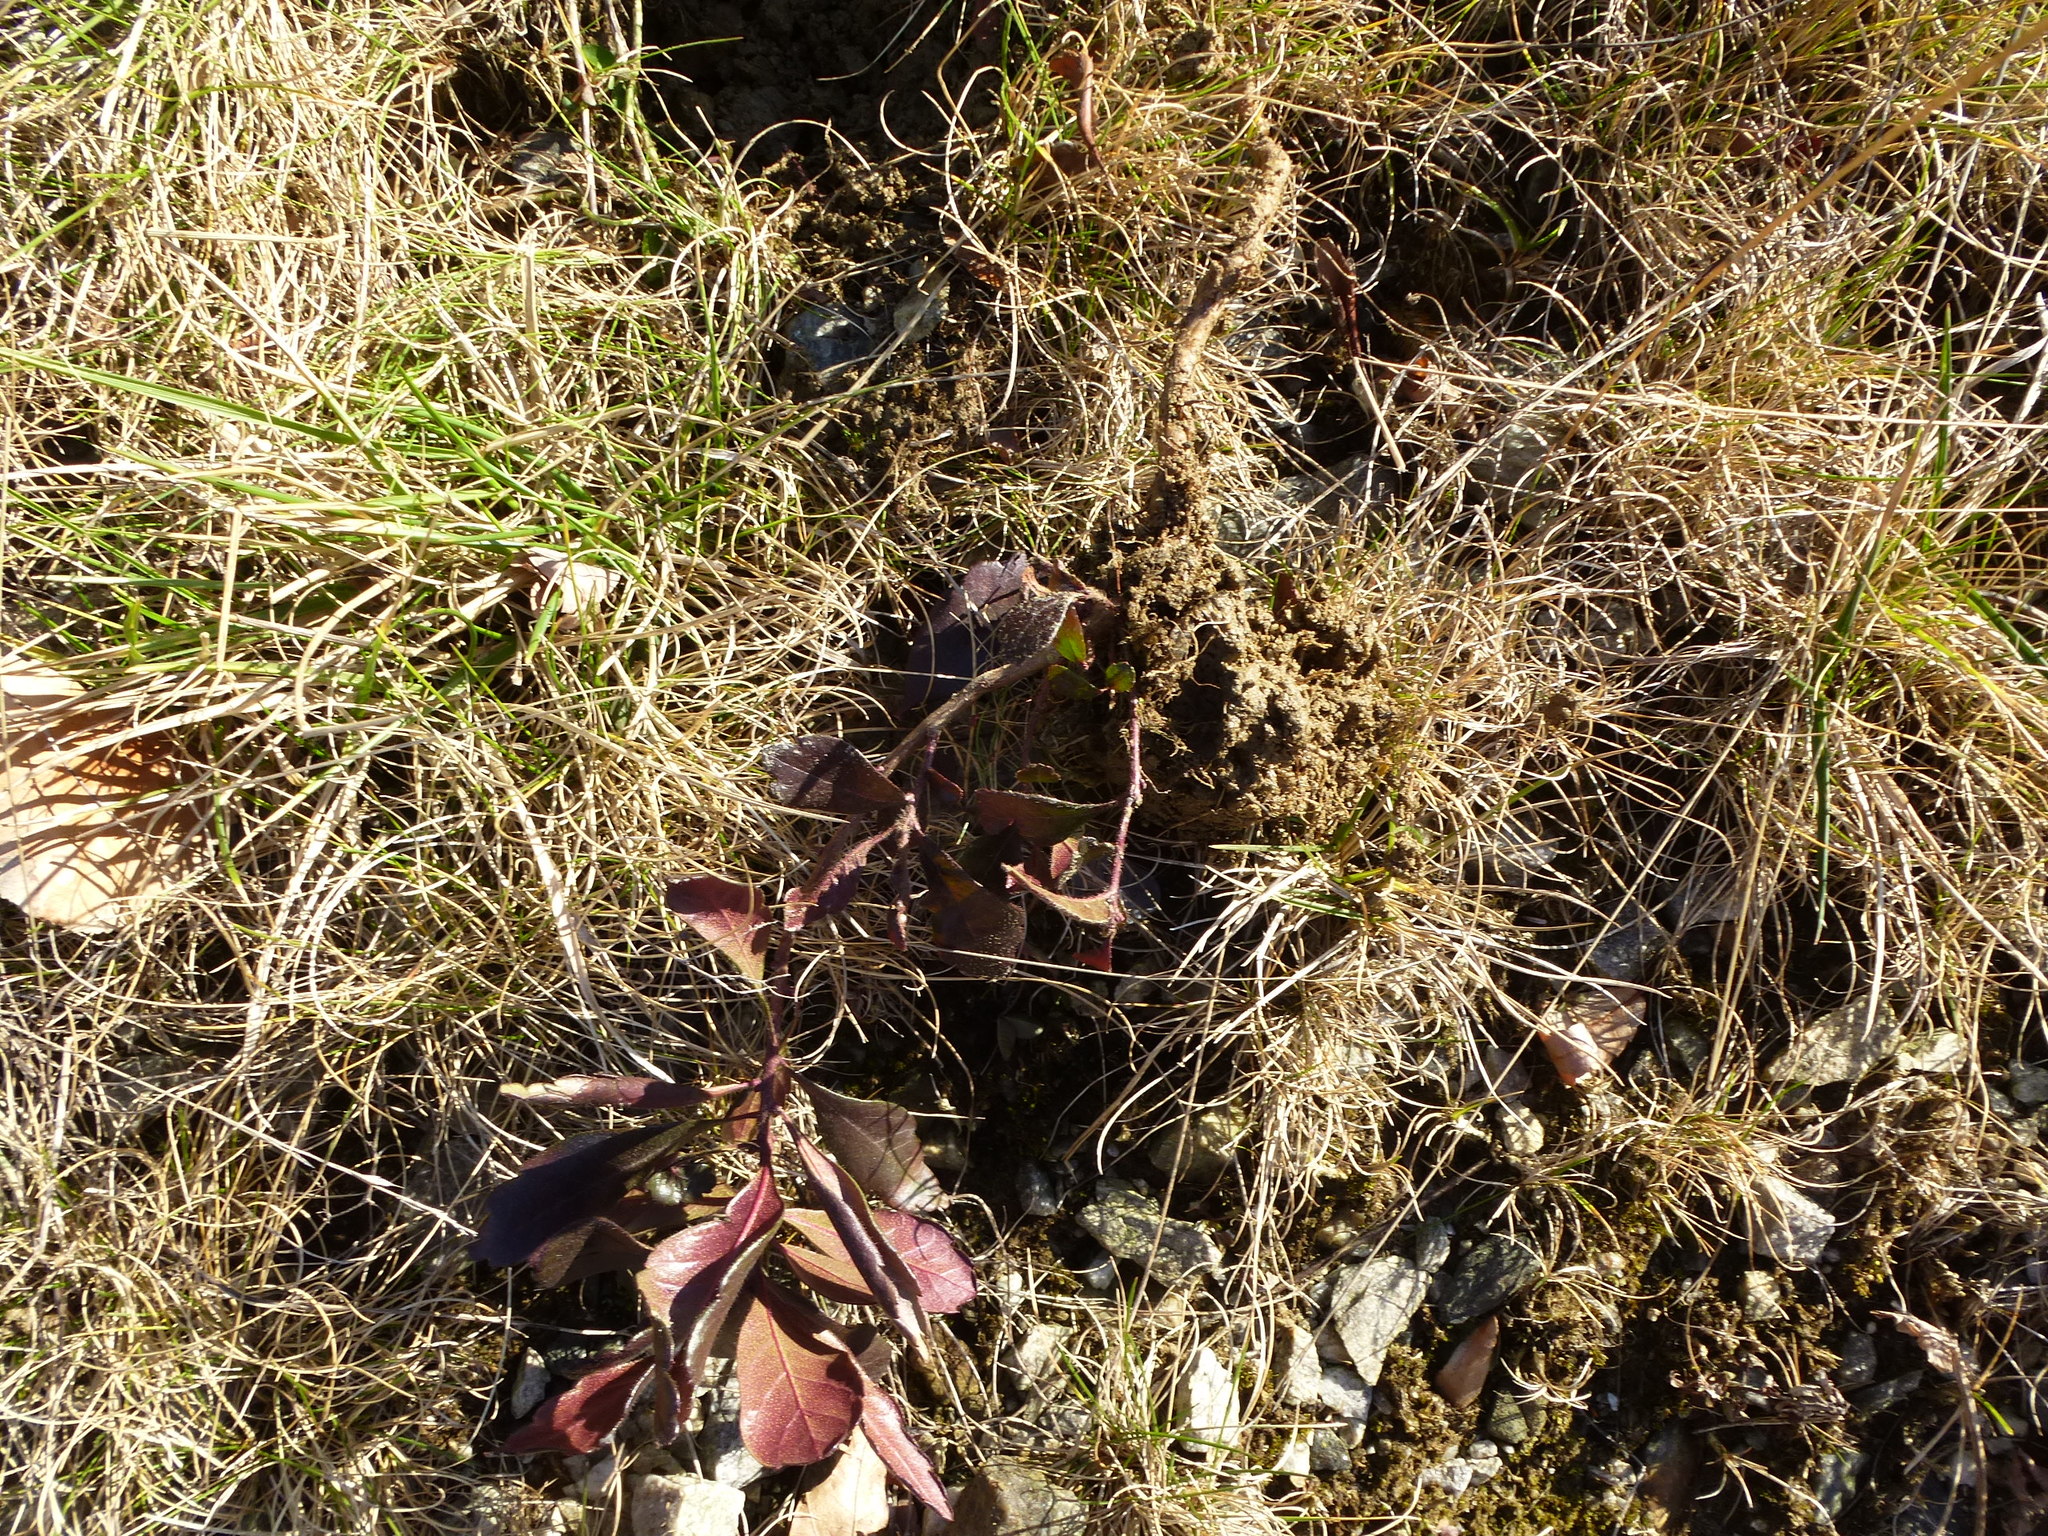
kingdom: Plantae
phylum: Tracheophyta
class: Magnoliopsida
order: Fagales
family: Myricaceae
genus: Morella
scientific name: Morella pensylvanica
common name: Northern bayberry
